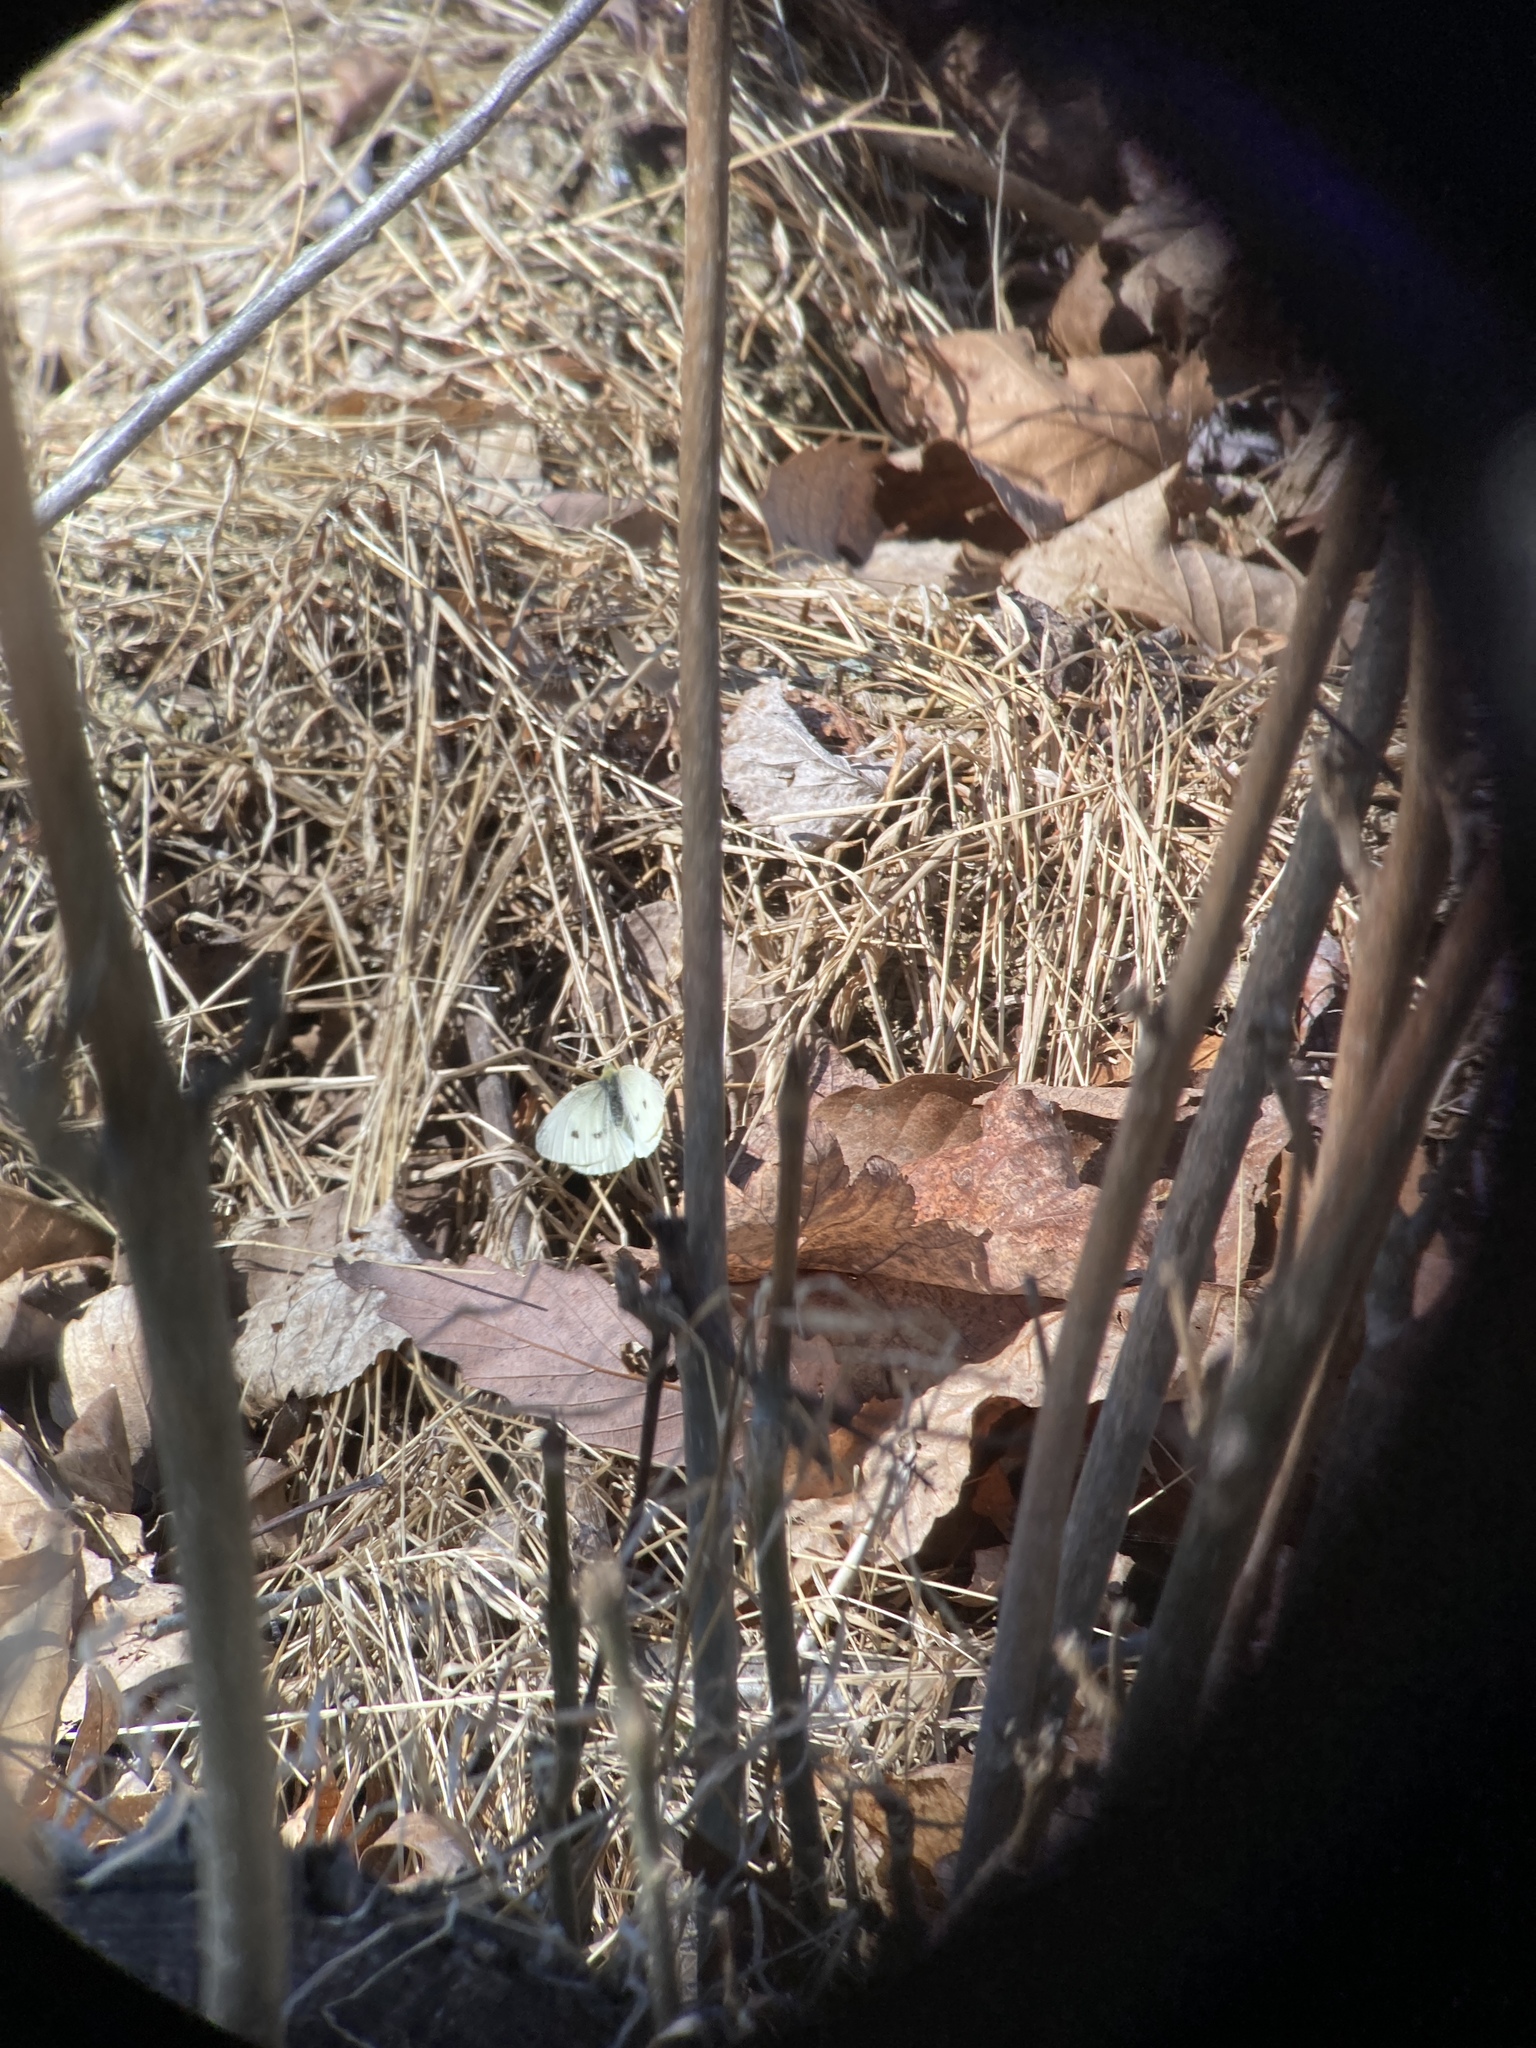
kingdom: Animalia
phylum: Arthropoda
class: Insecta
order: Lepidoptera
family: Pieridae
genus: Pieris
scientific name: Pieris rapae
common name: Small white
